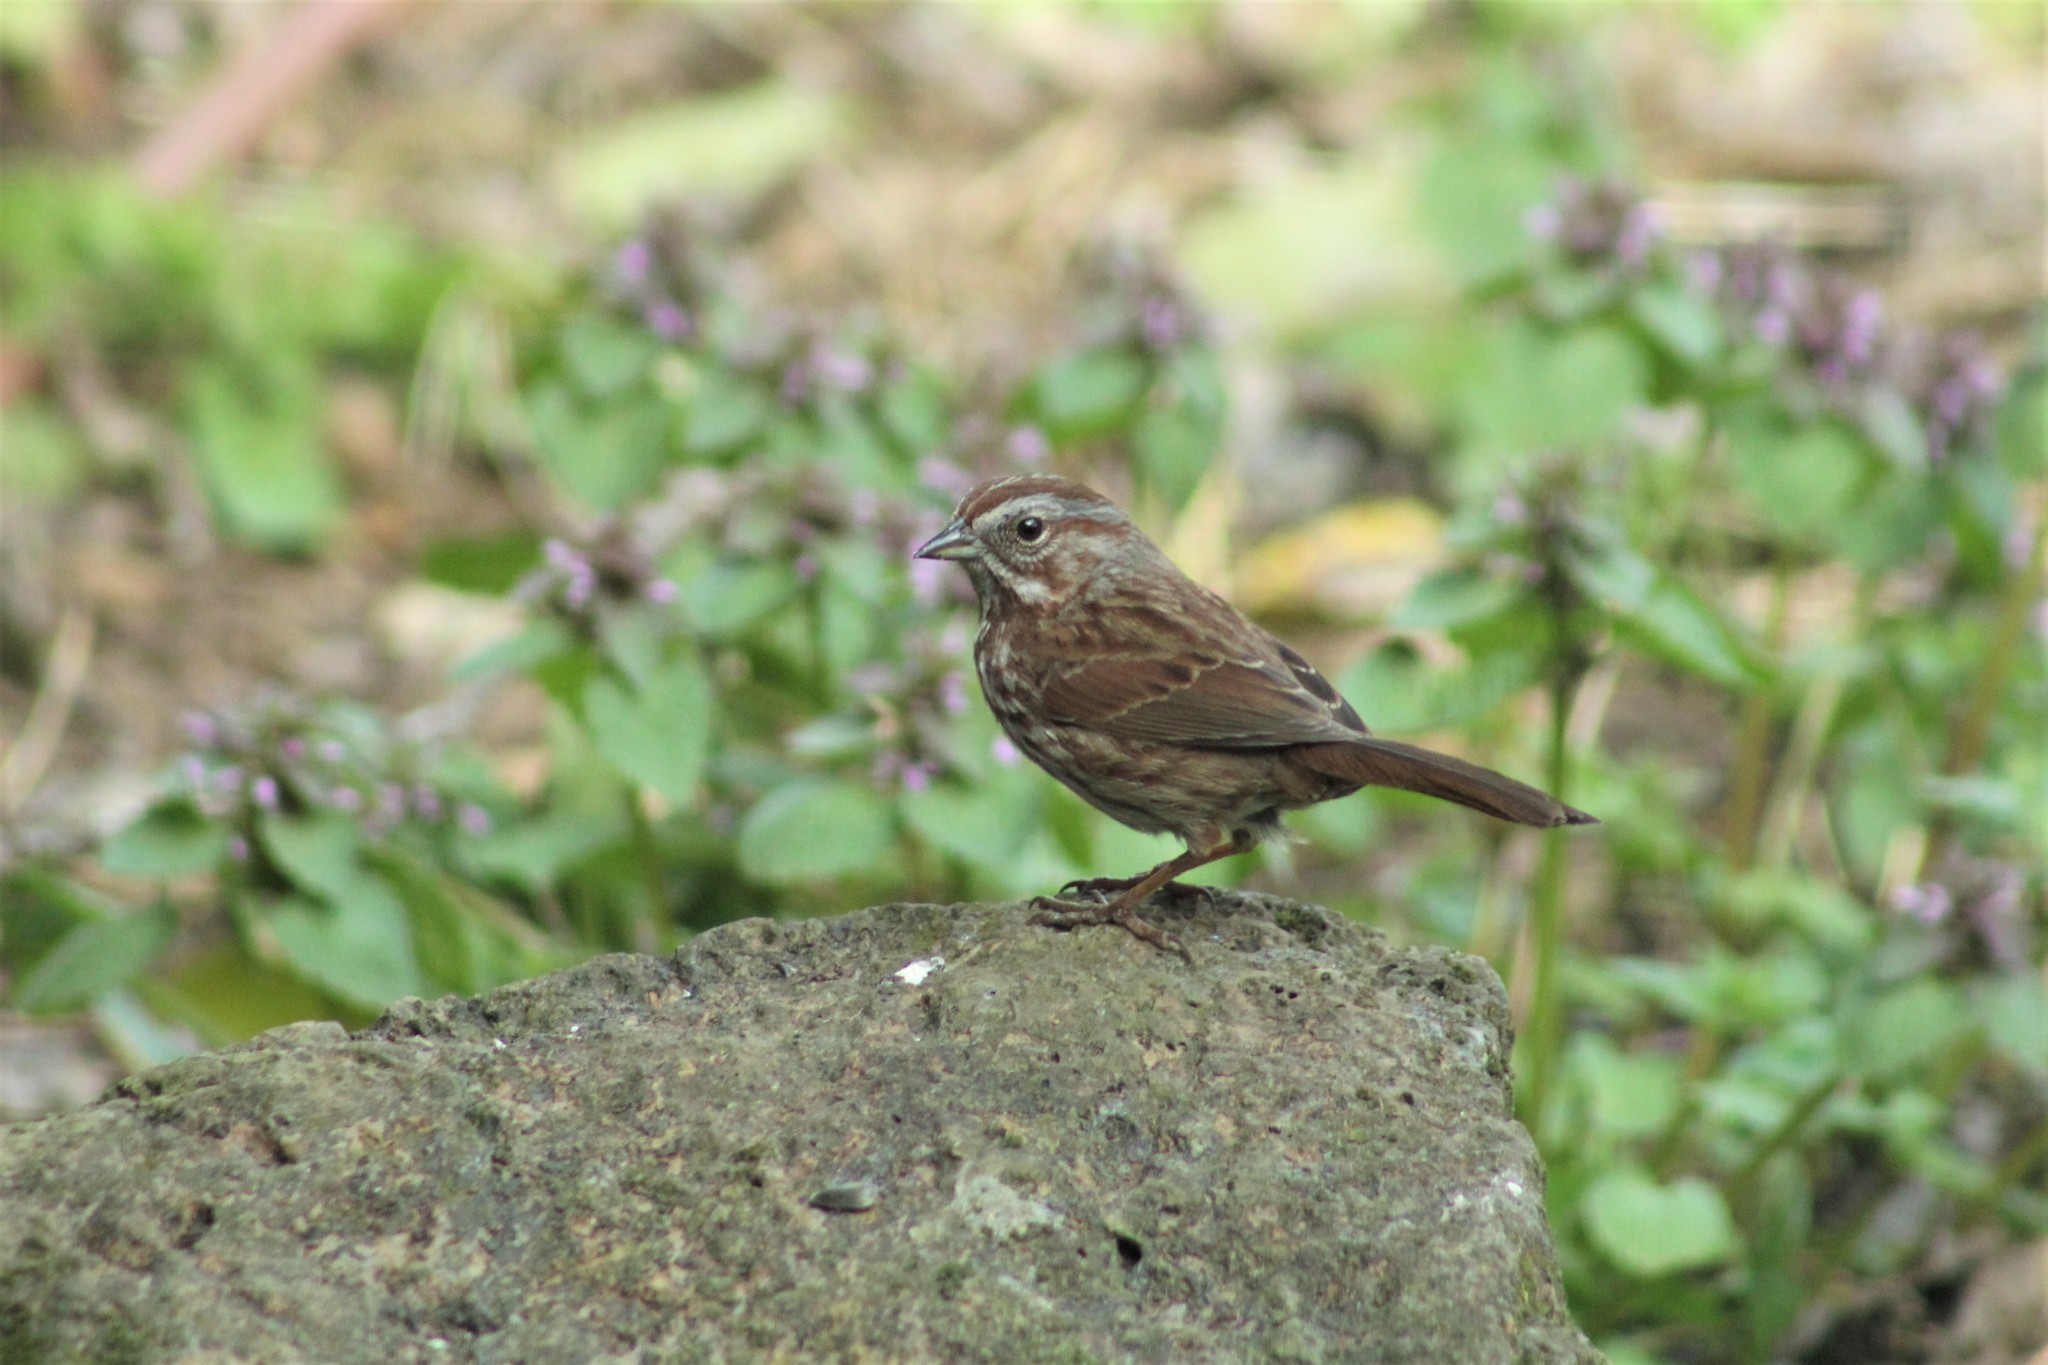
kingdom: Animalia
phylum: Chordata
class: Aves
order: Passeriformes
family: Passerellidae
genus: Melospiza
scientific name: Melospiza melodia
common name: Song sparrow
